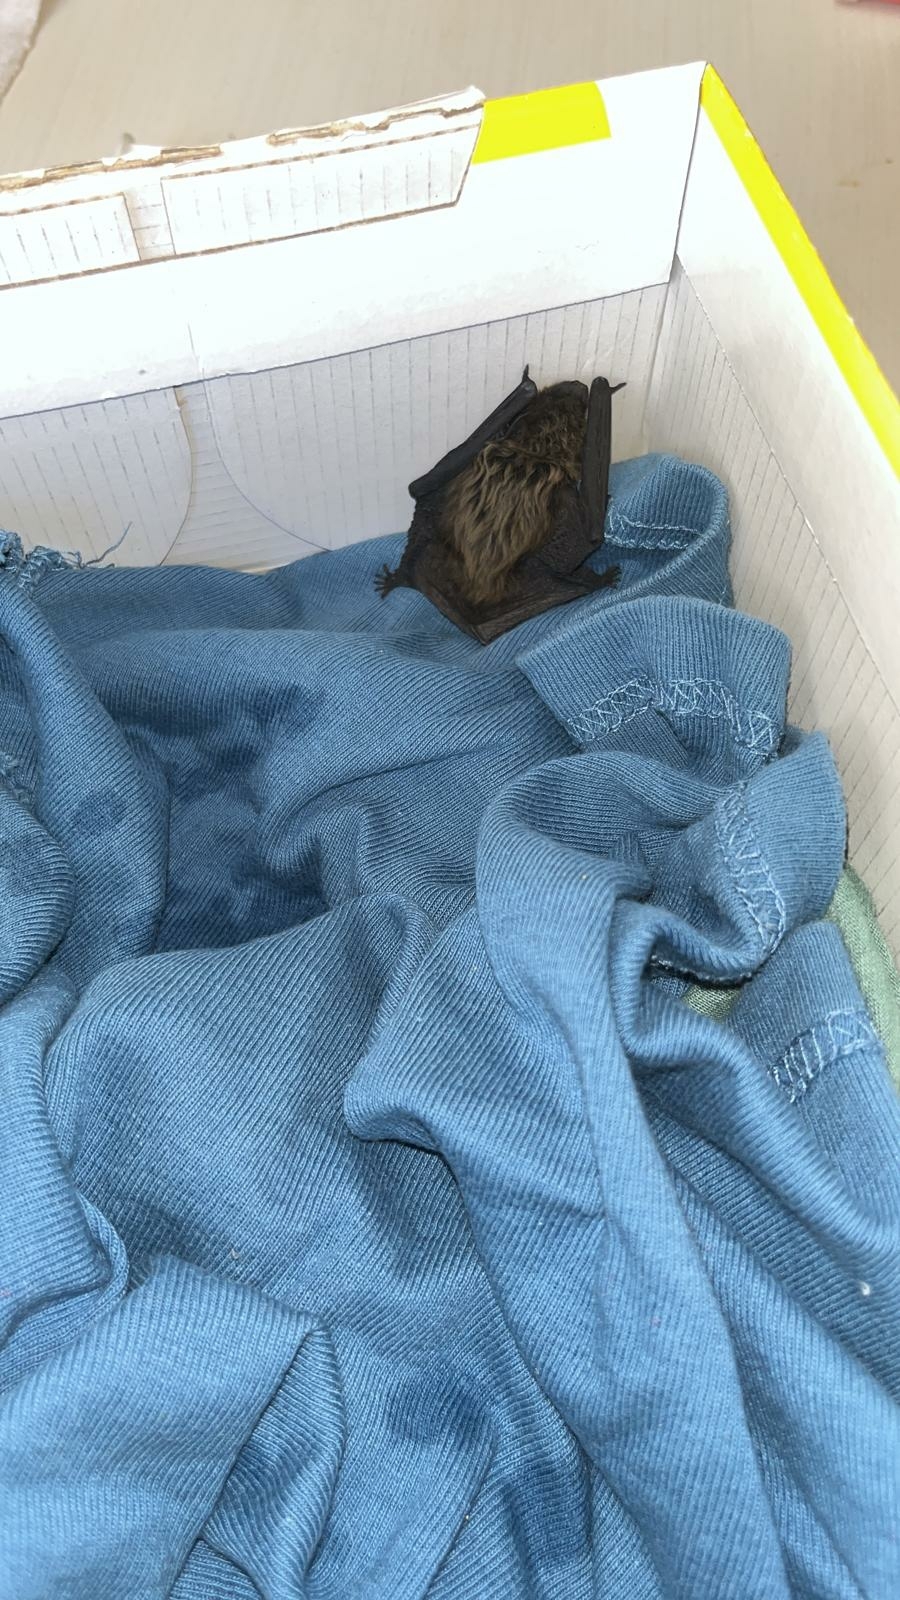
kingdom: Animalia
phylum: Chordata
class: Mammalia
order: Chiroptera
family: Vespertilionidae
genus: Hypsugo
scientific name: Hypsugo savii
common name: Savi's pipistrelle
